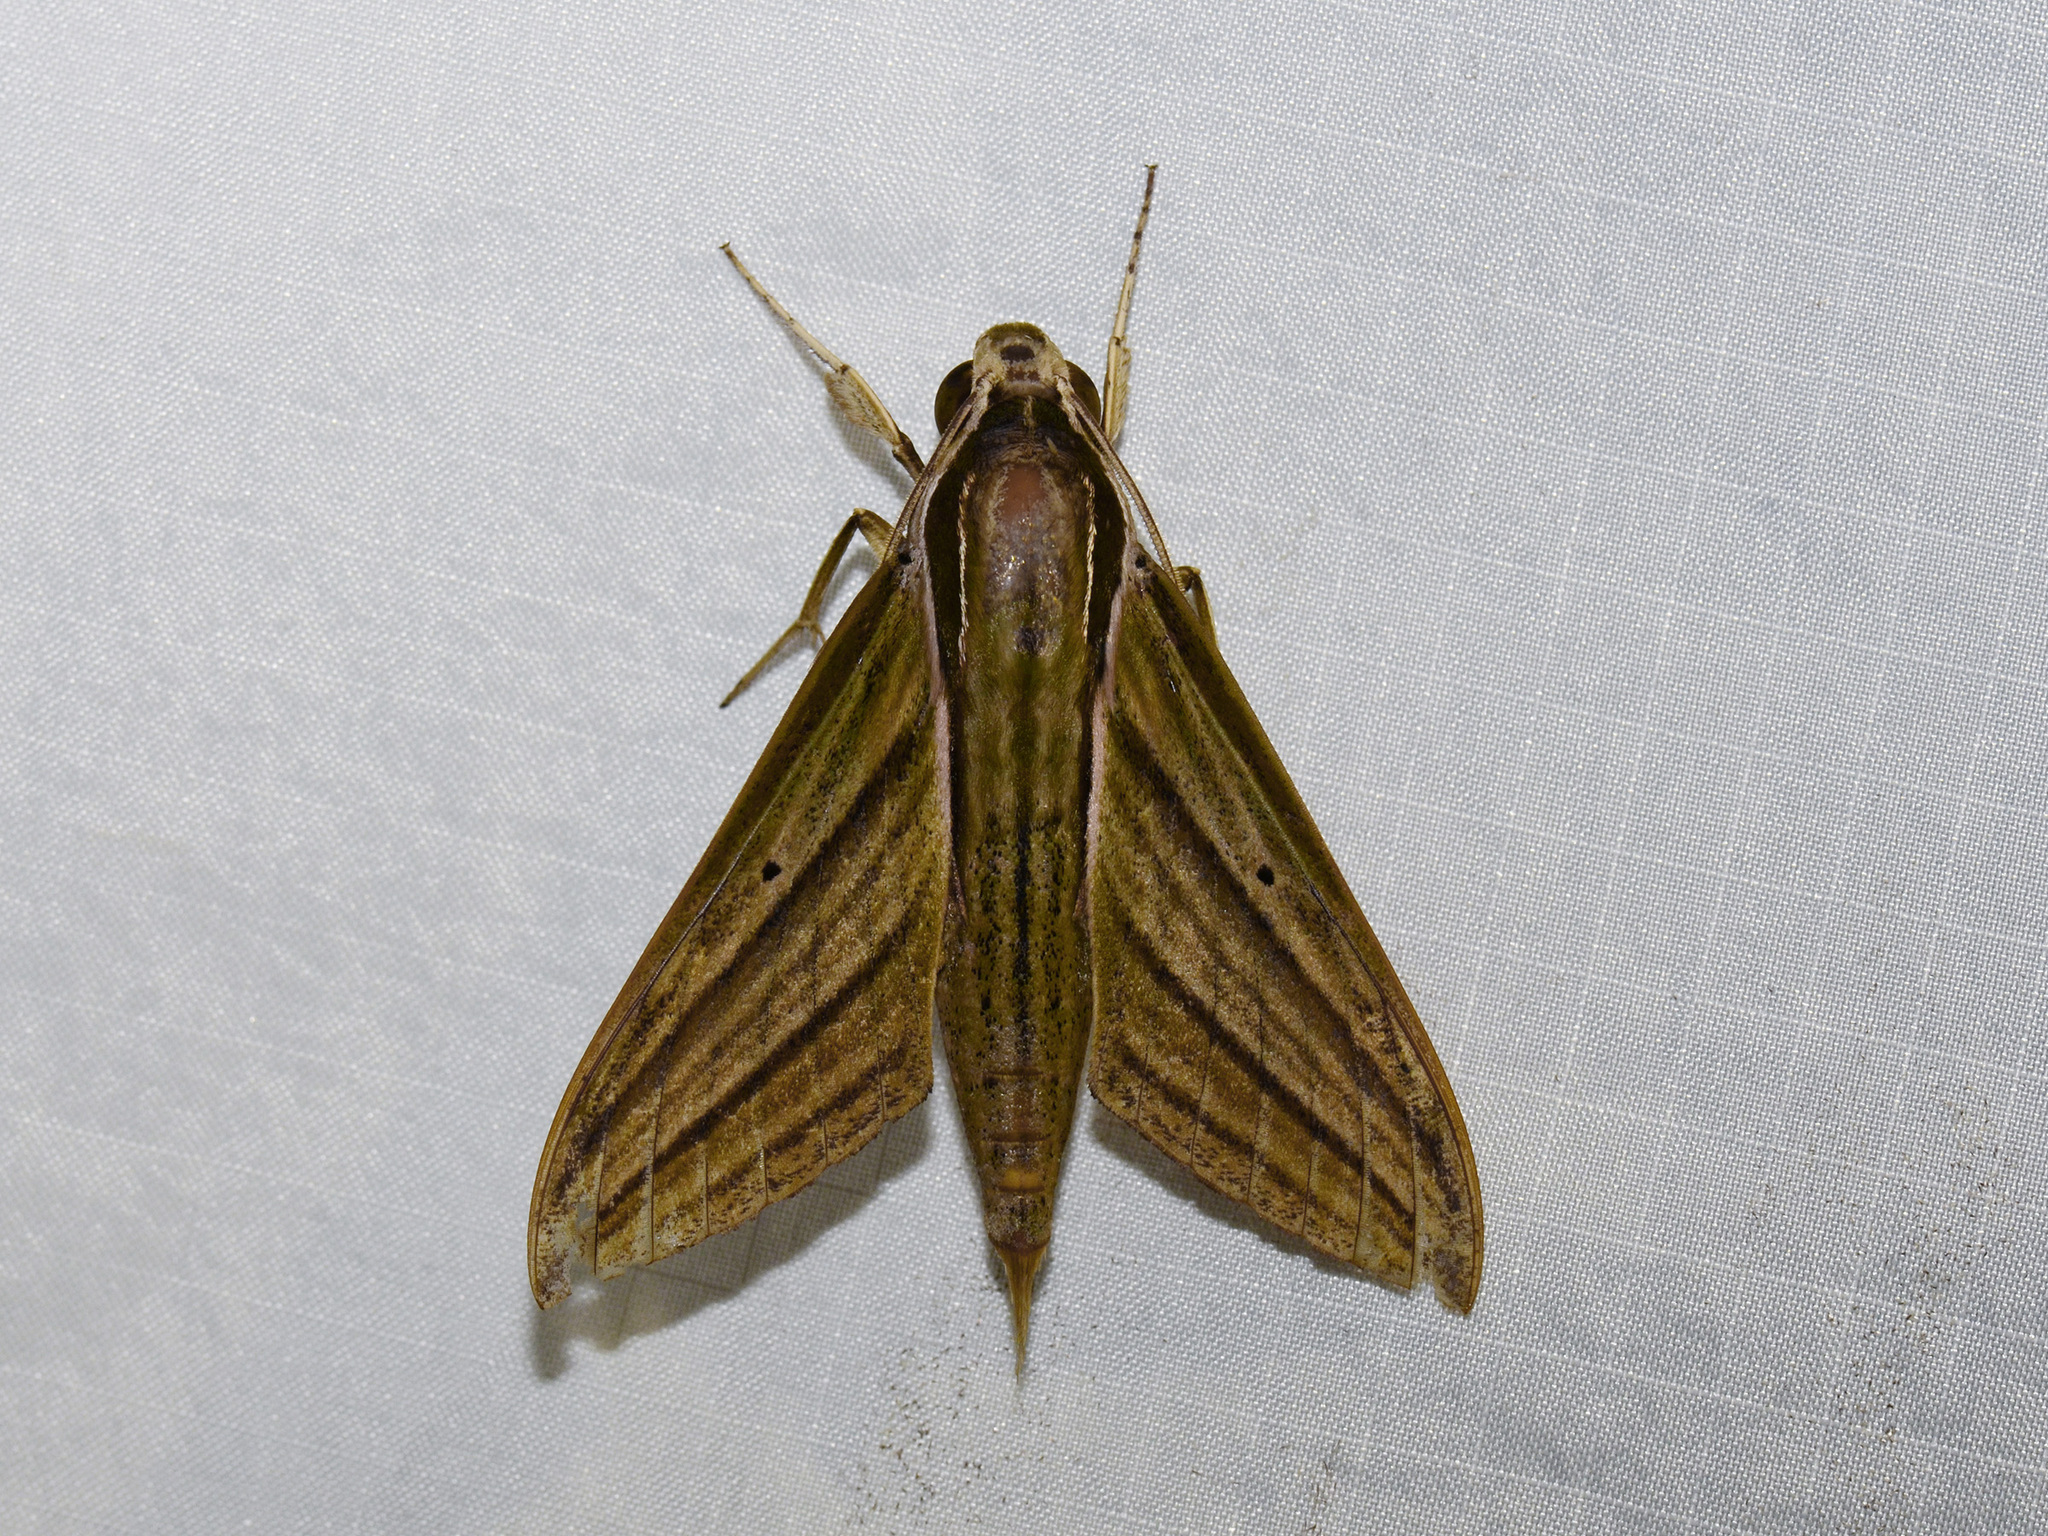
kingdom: Animalia
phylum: Arthropoda
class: Insecta
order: Lepidoptera
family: Sphingidae
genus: Theretra
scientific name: Theretra manilae
